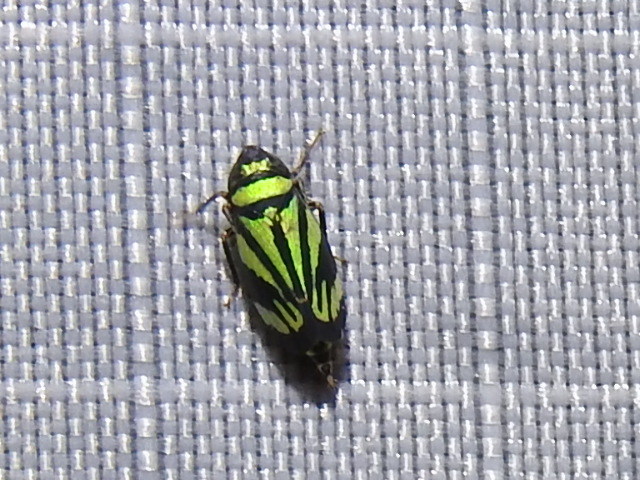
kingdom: Animalia
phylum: Arthropoda
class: Insecta
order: Hemiptera
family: Cicadellidae
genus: Stirellus
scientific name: Stirellus bicolor
